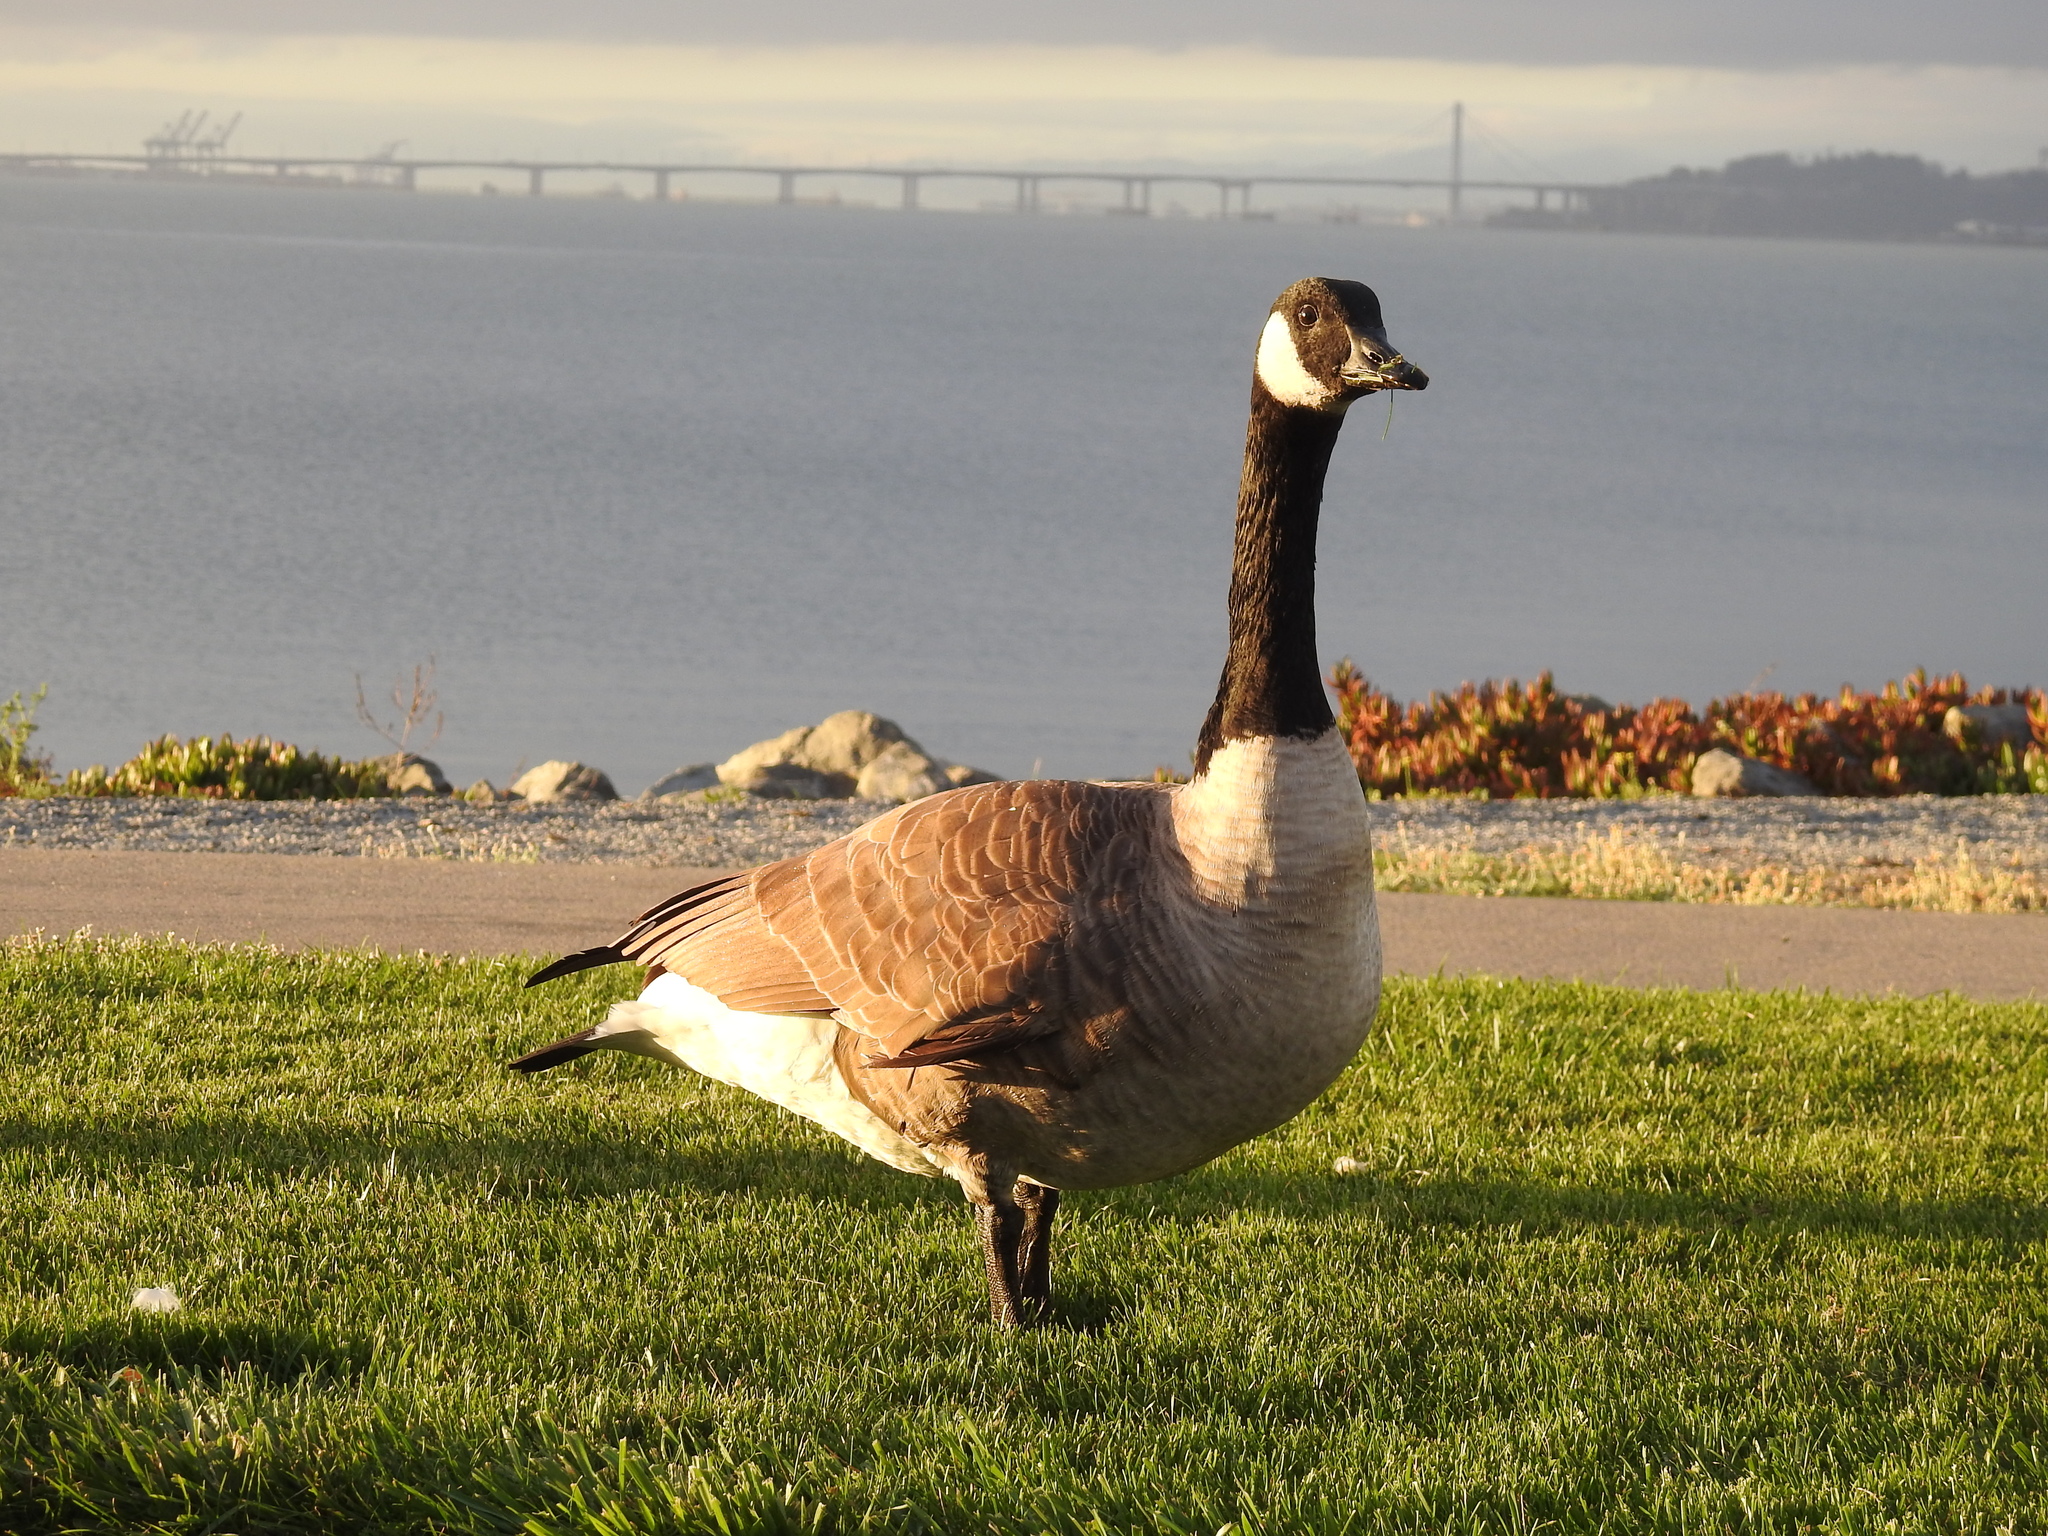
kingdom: Animalia
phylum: Chordata
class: Aves
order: Anseriformes
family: Anatidae
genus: Branta
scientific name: Branta canadensis
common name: Canada goose
